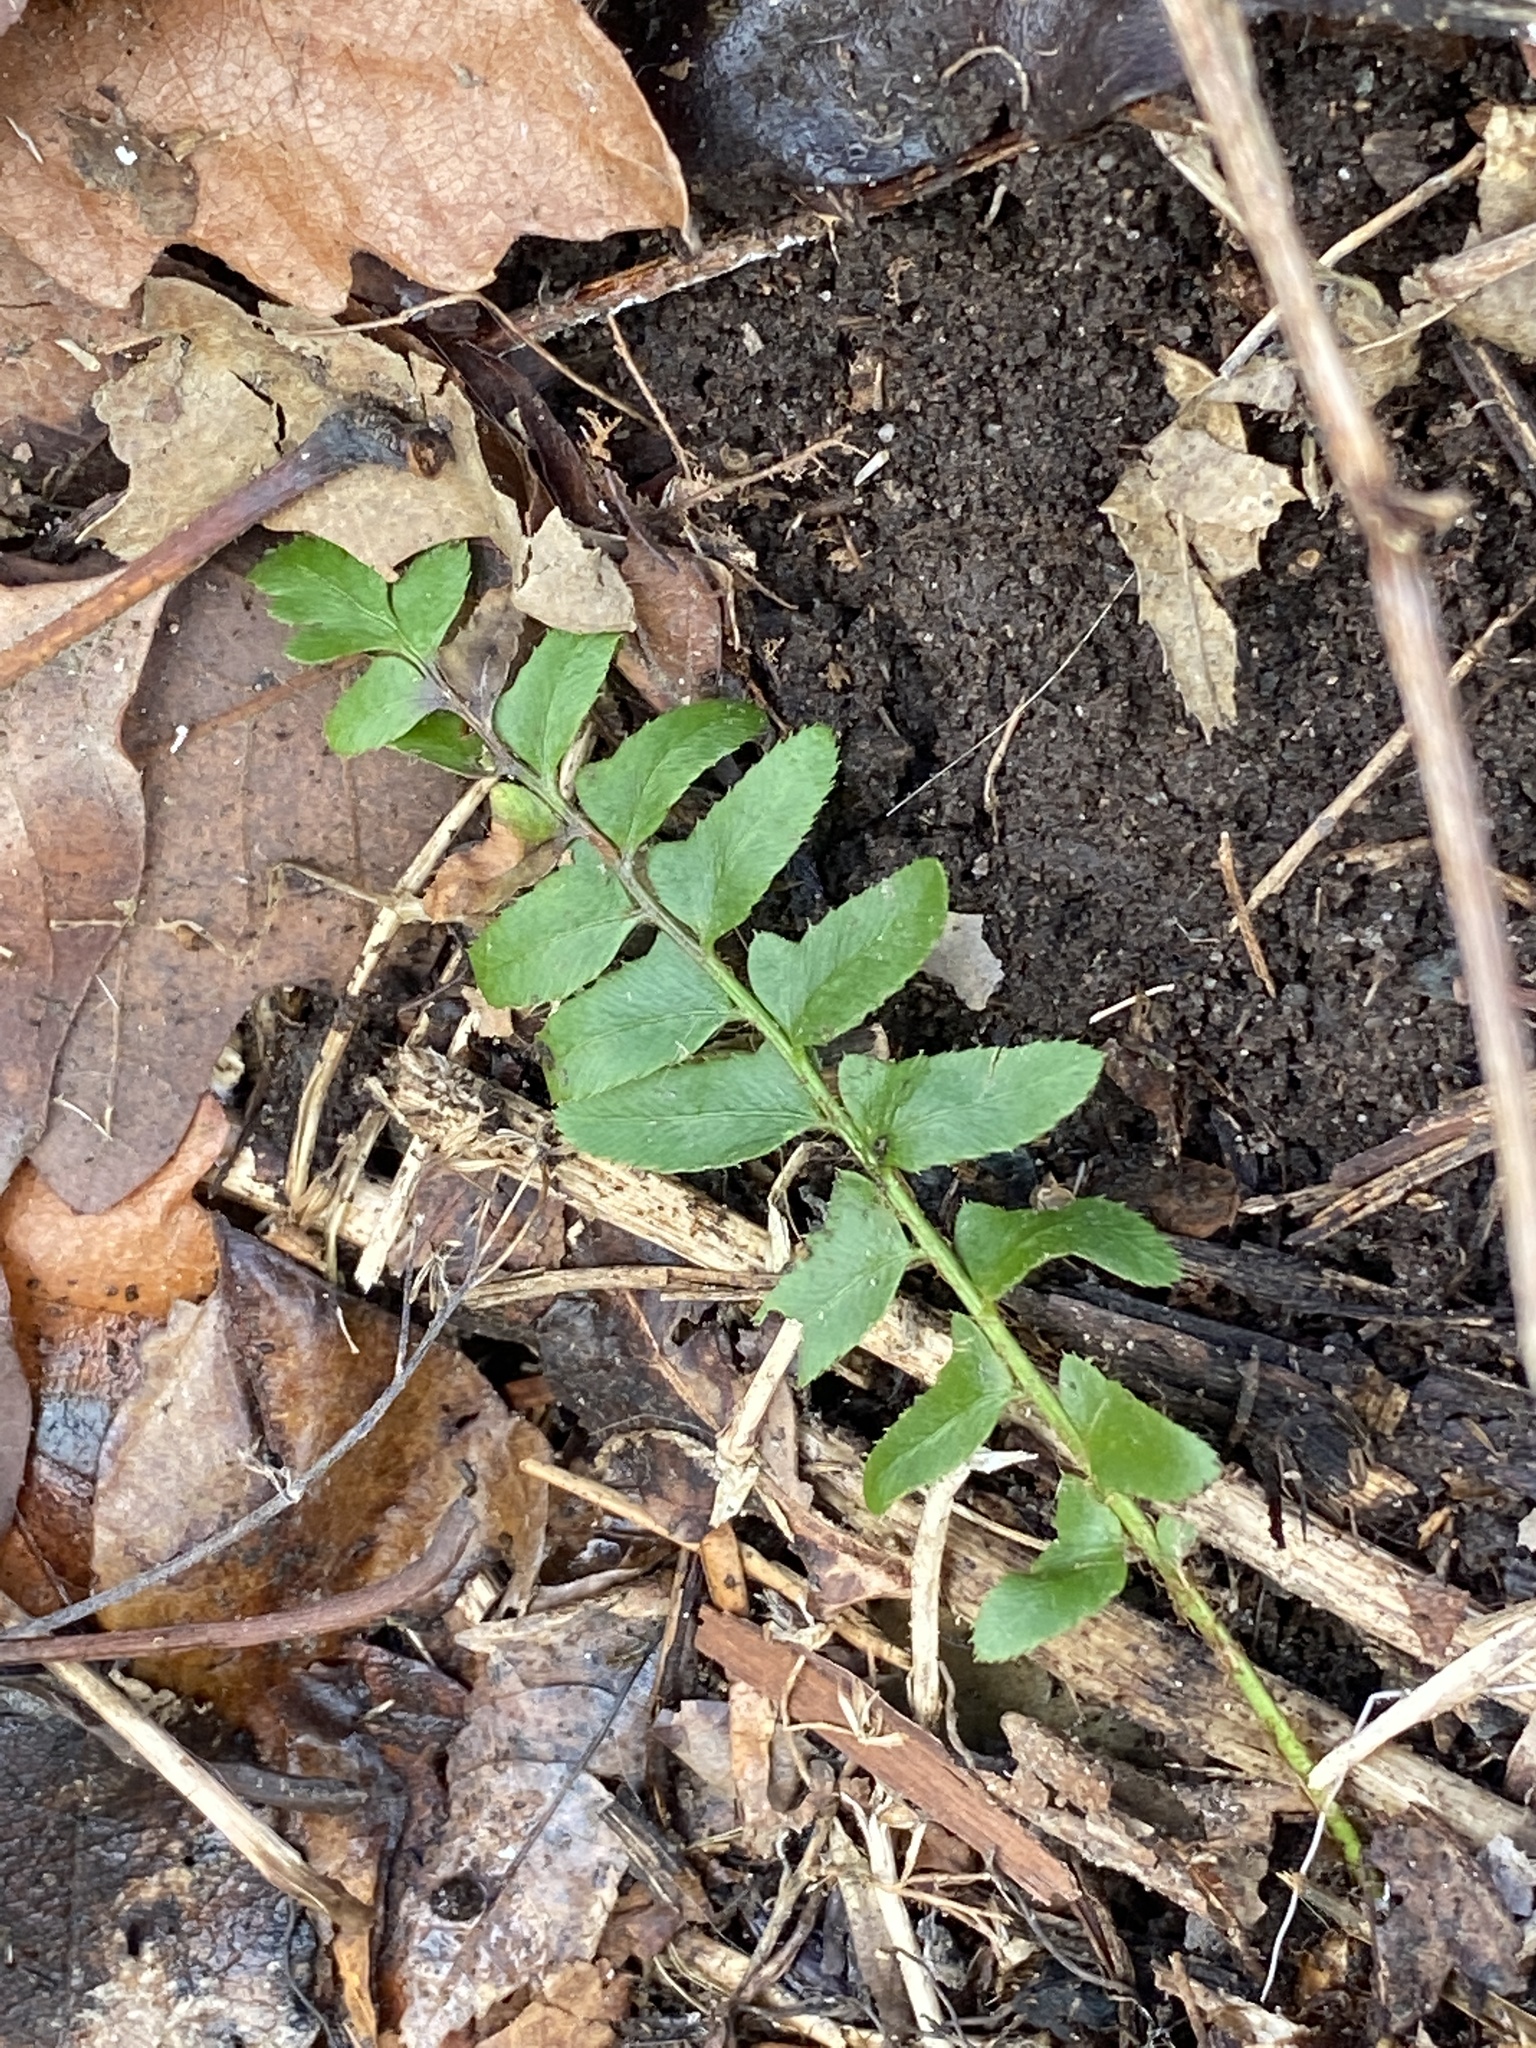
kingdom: Plantae
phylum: Tracheophyta
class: Polypodiopsida
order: Polypodiales
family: Dryopteridaceae
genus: Polystichum
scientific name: Polystichum acrostichoides
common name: Christmas fern
